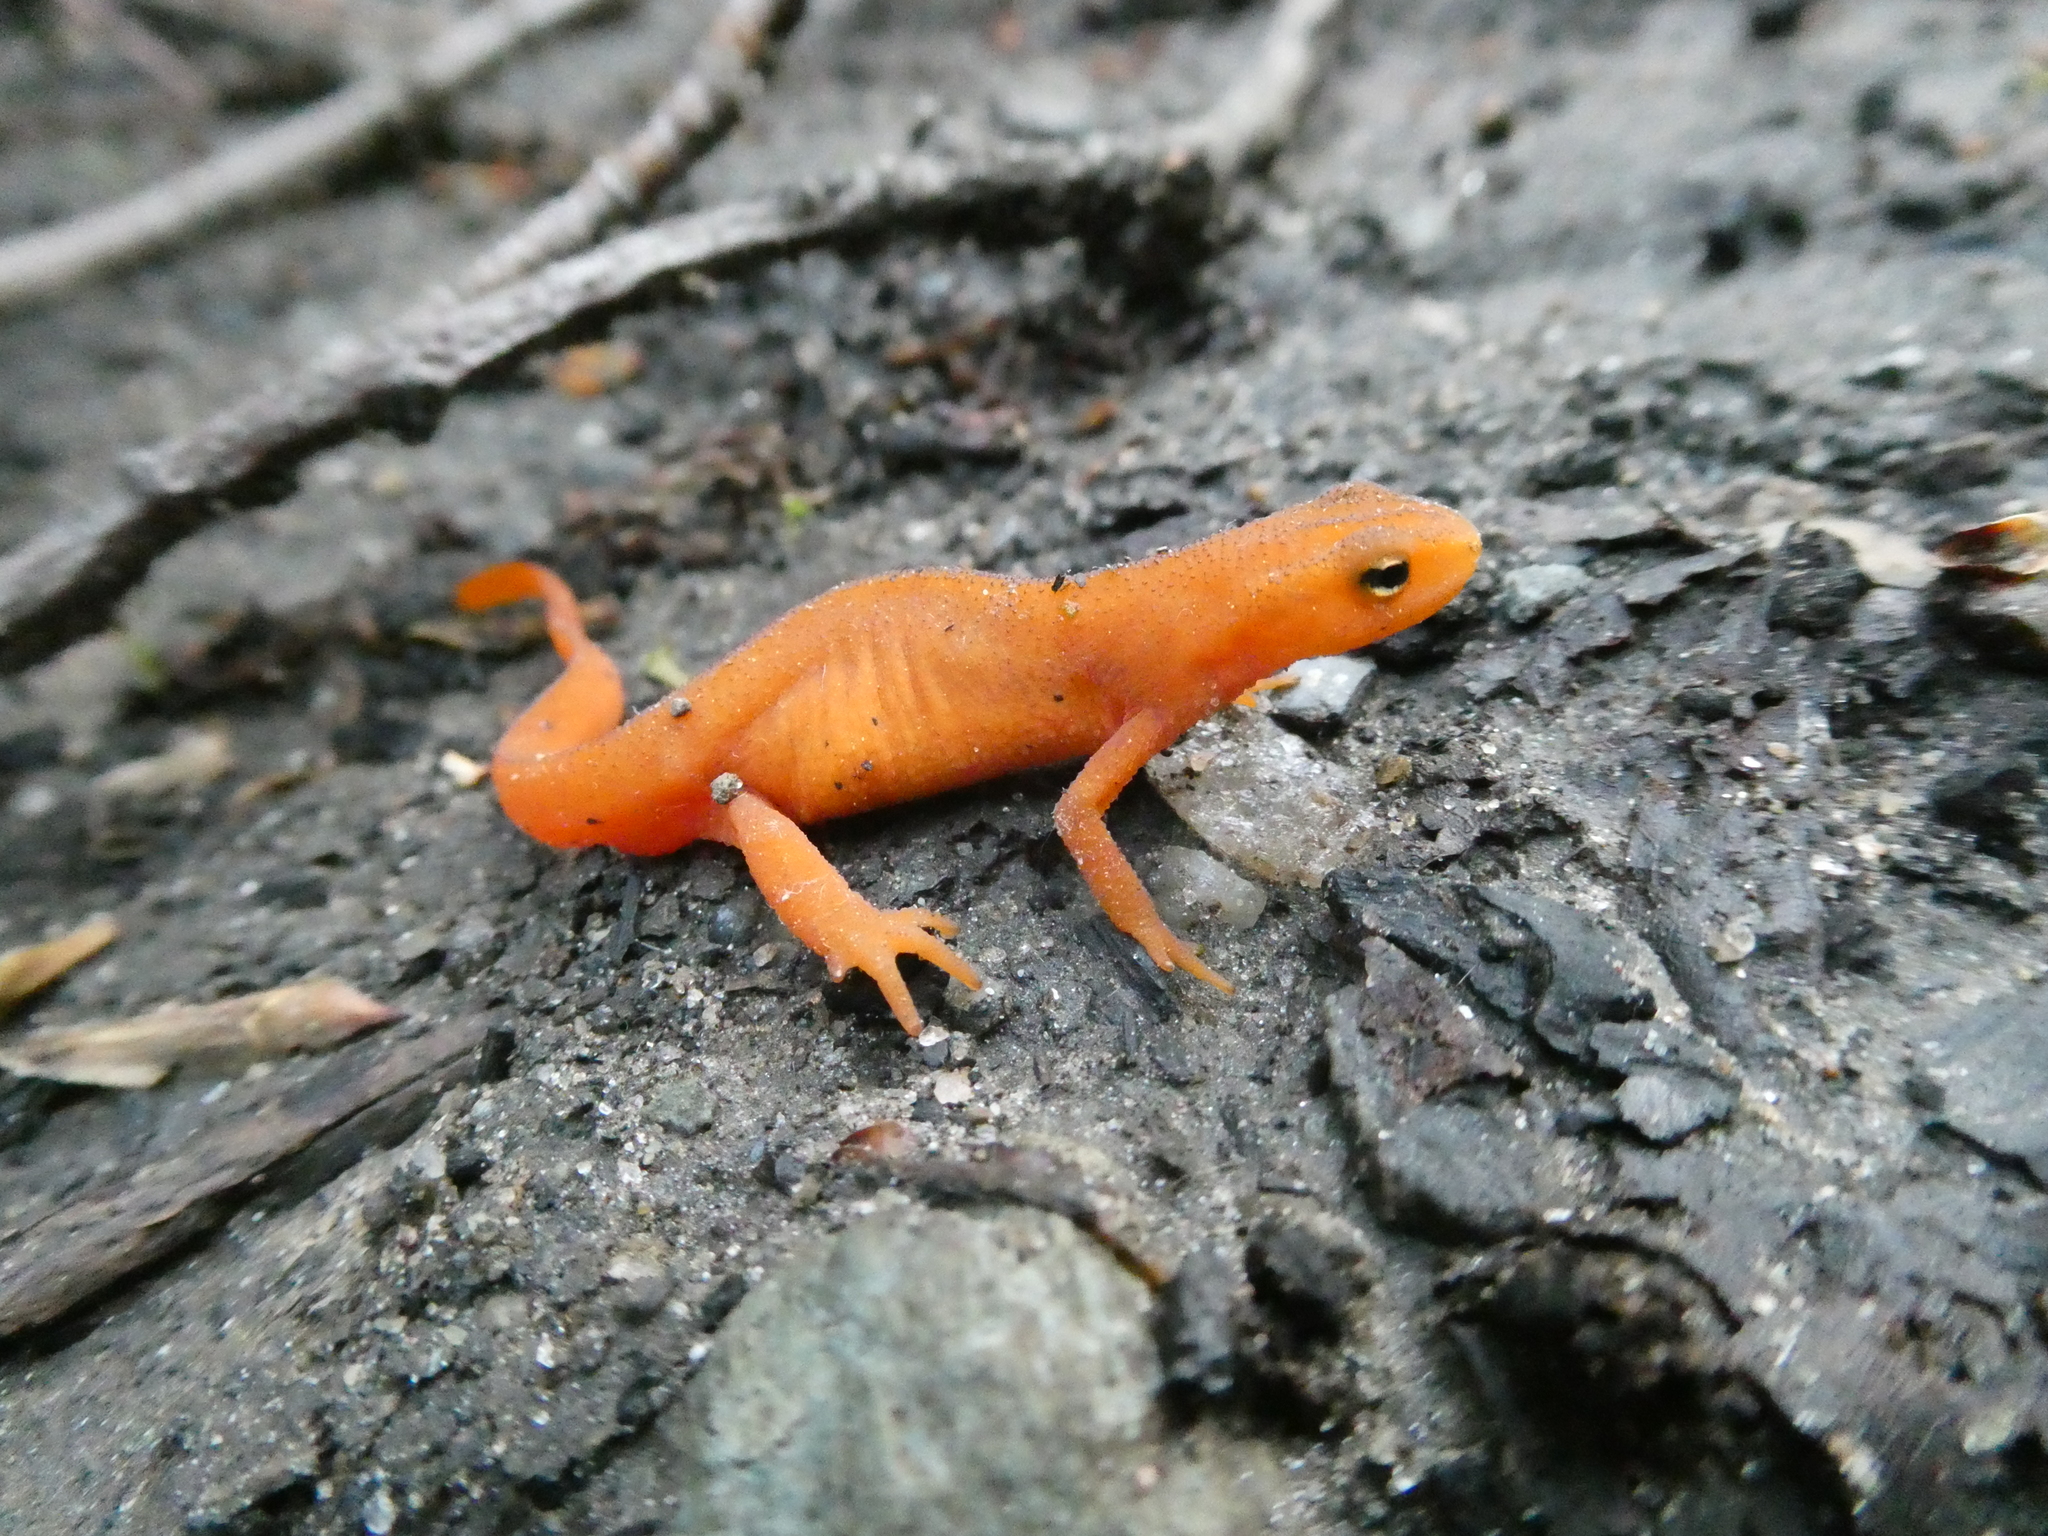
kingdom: Animalia
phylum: Chordata
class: Amphibia
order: Caudata
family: Salamandridae
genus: Notophthalmus
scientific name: Notophthalmus viridescens
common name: Eastern newt
